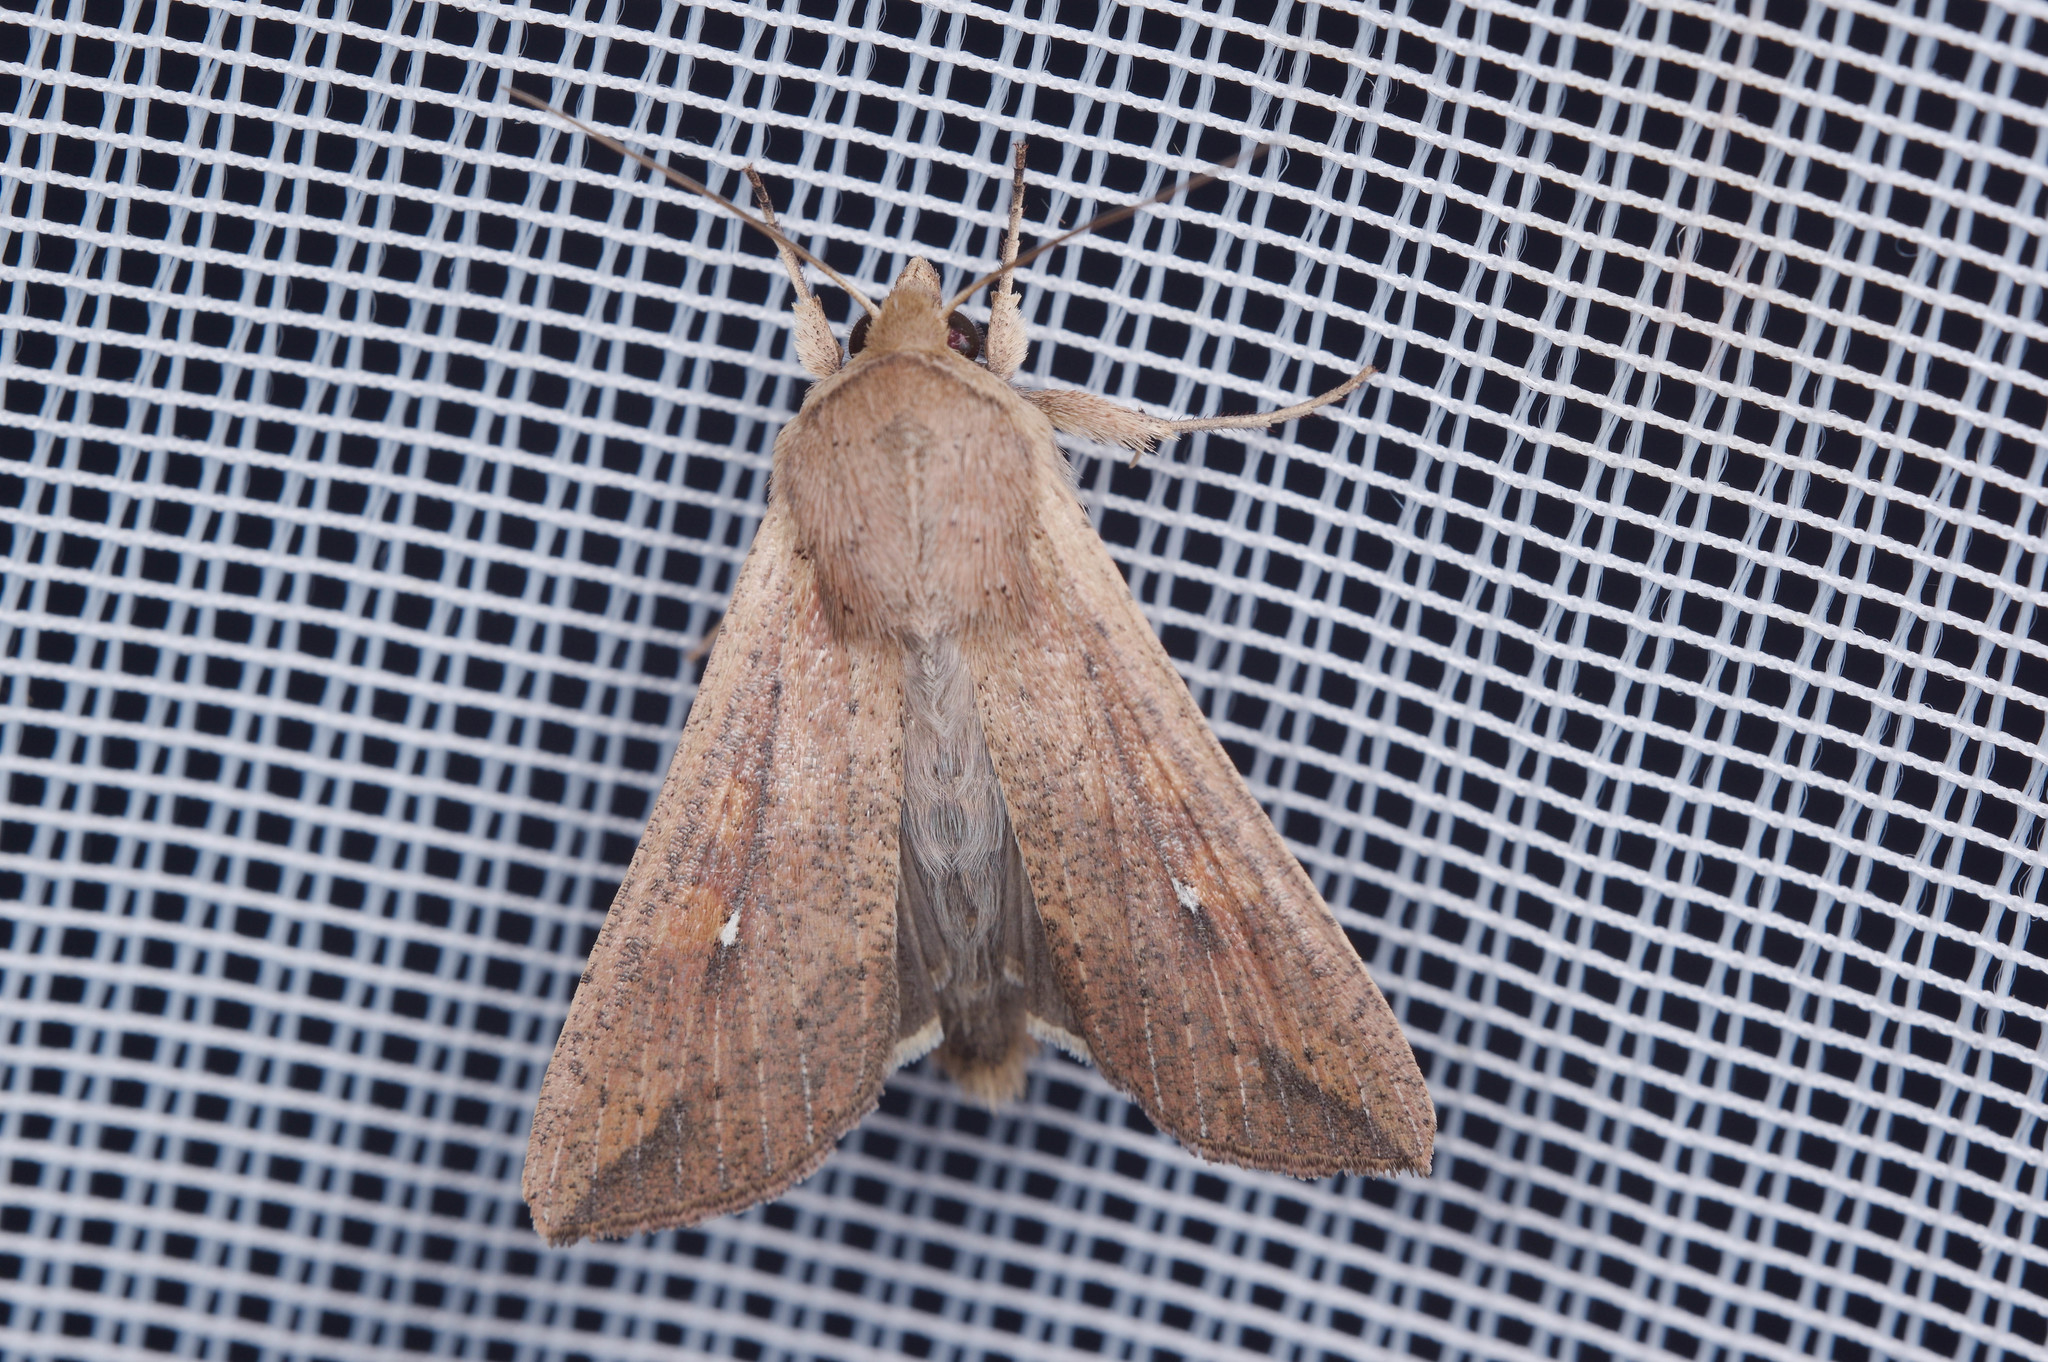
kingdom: Animalia
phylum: Arthropoda
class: Insecta
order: Lepidoptera
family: Noctuidae
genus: Mythimna
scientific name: Mythimna unipuncta
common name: White-speck
